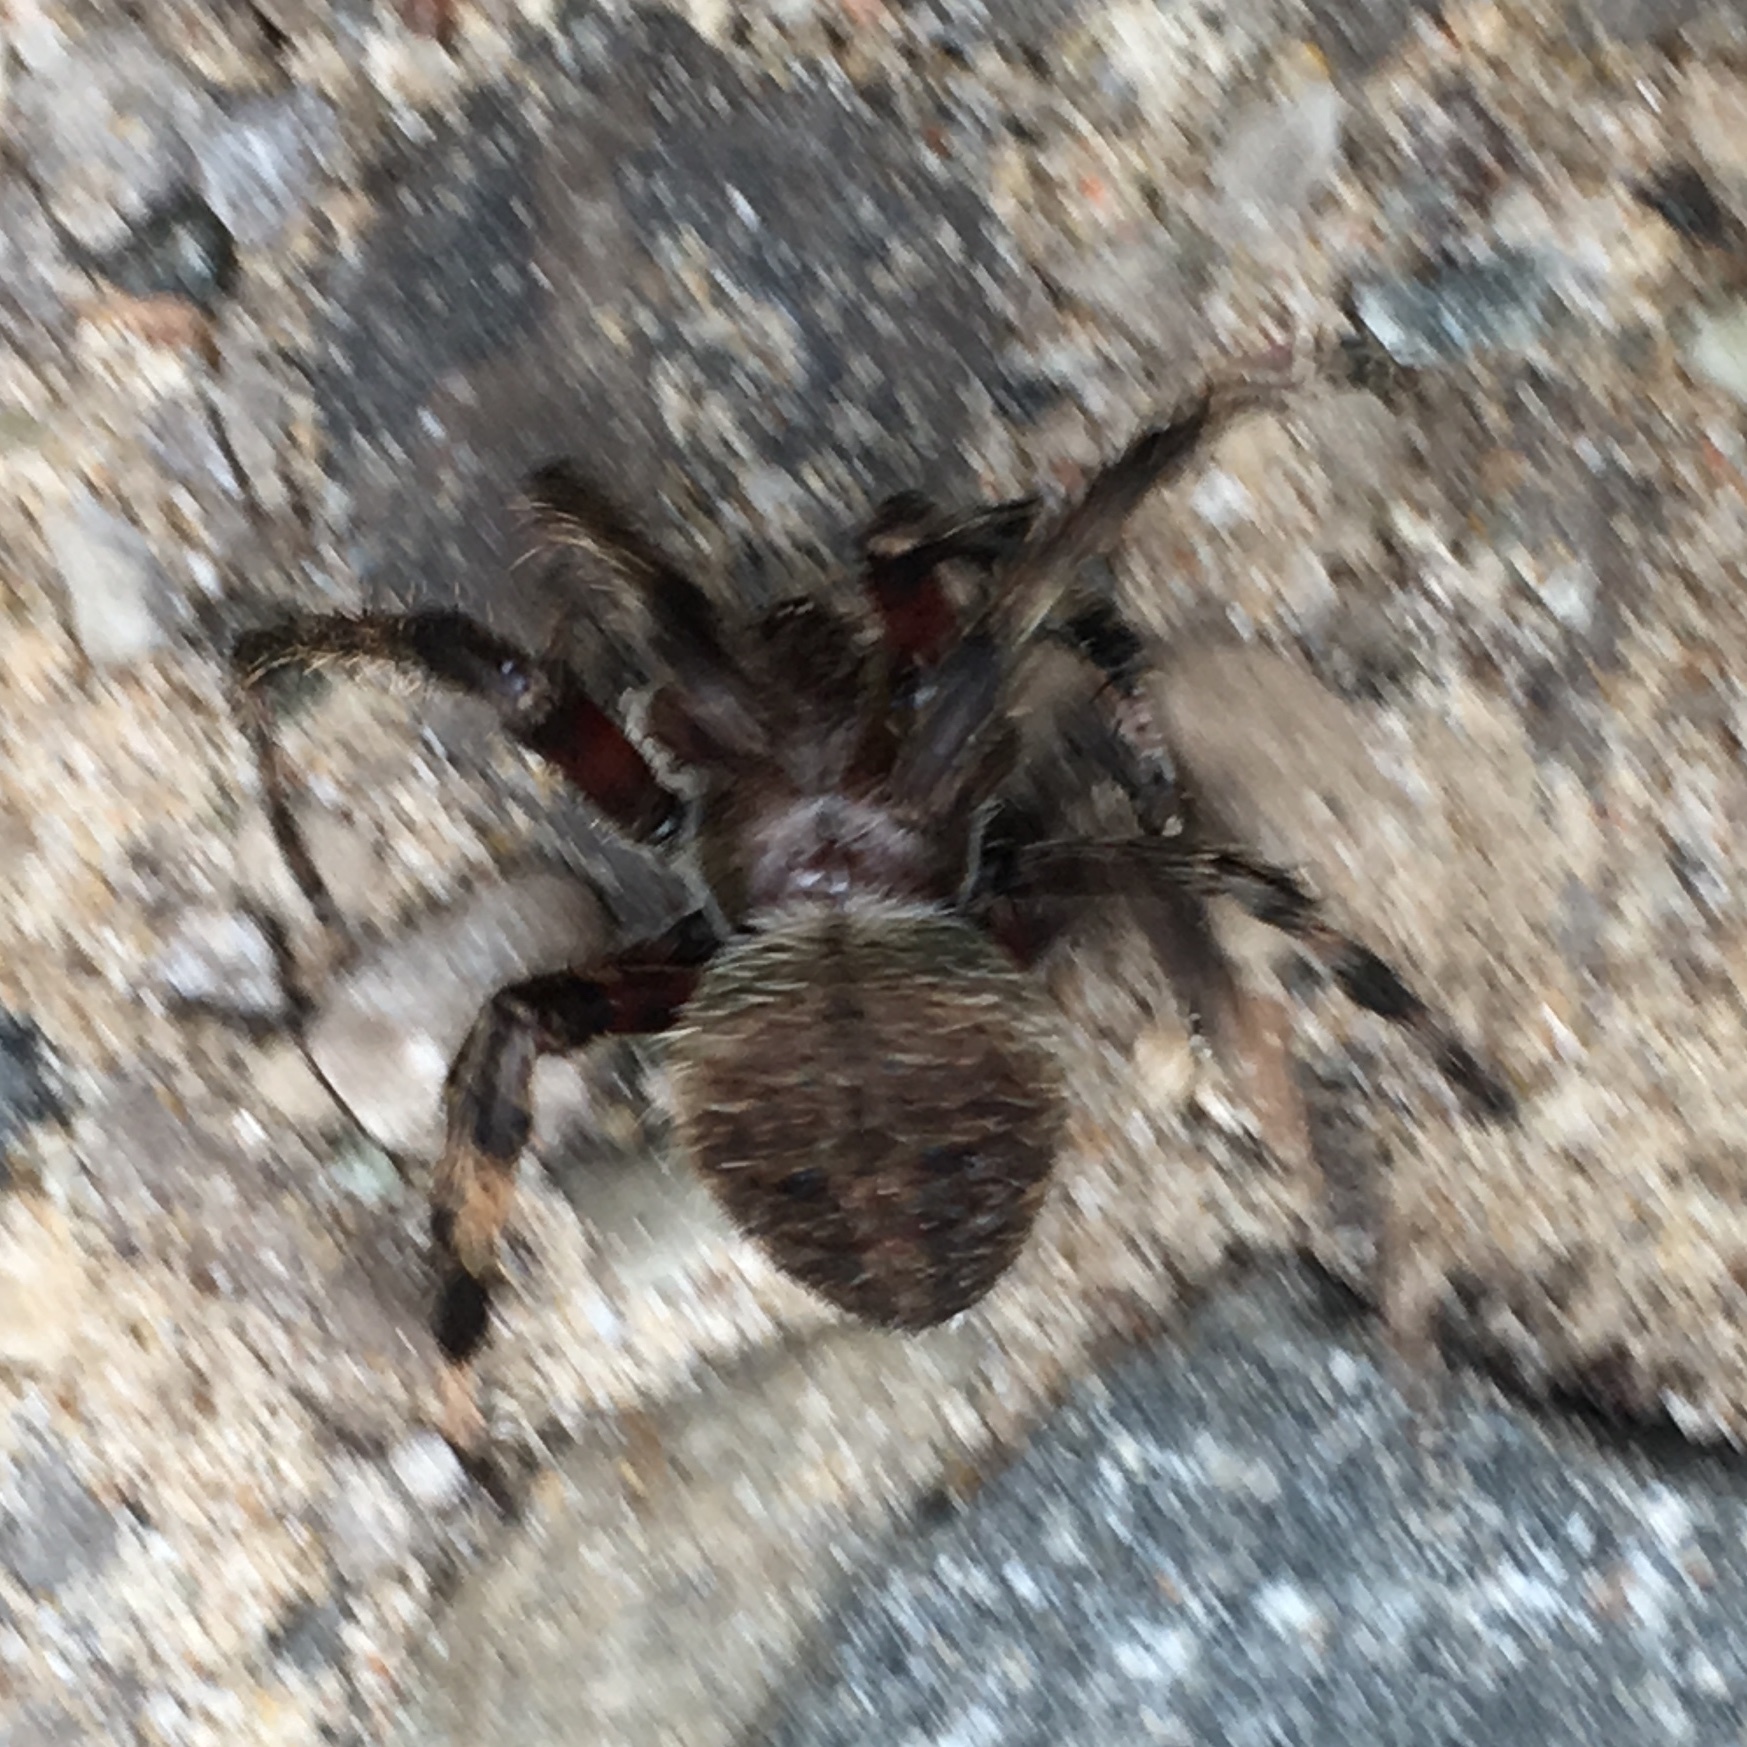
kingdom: Animalia
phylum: Arthropoda
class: Arachnida
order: Araneae
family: Araneidae
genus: Neoscona
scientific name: Neoscona crucifera
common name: Spotted orbweaver
